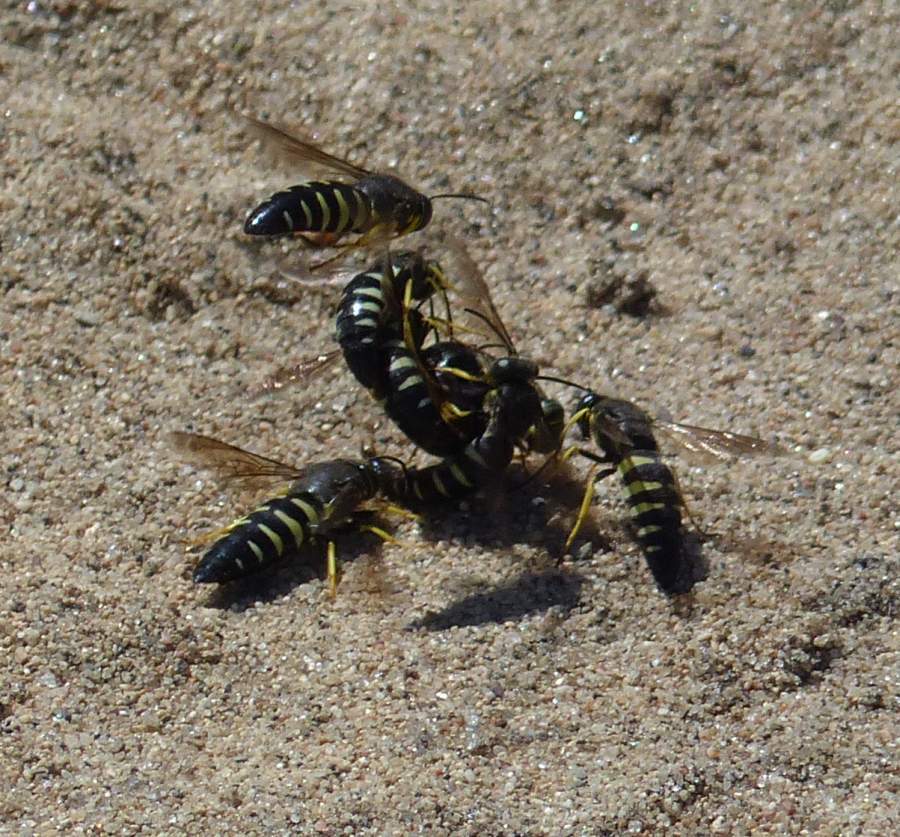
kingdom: Animalia
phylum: Arthropoda
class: Insecta
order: Hymenoptera
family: Crabronidae
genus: Bicyrtes
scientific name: Bicyrtes quadrifasciatus
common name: Four-banded stink bug hunter wasp
